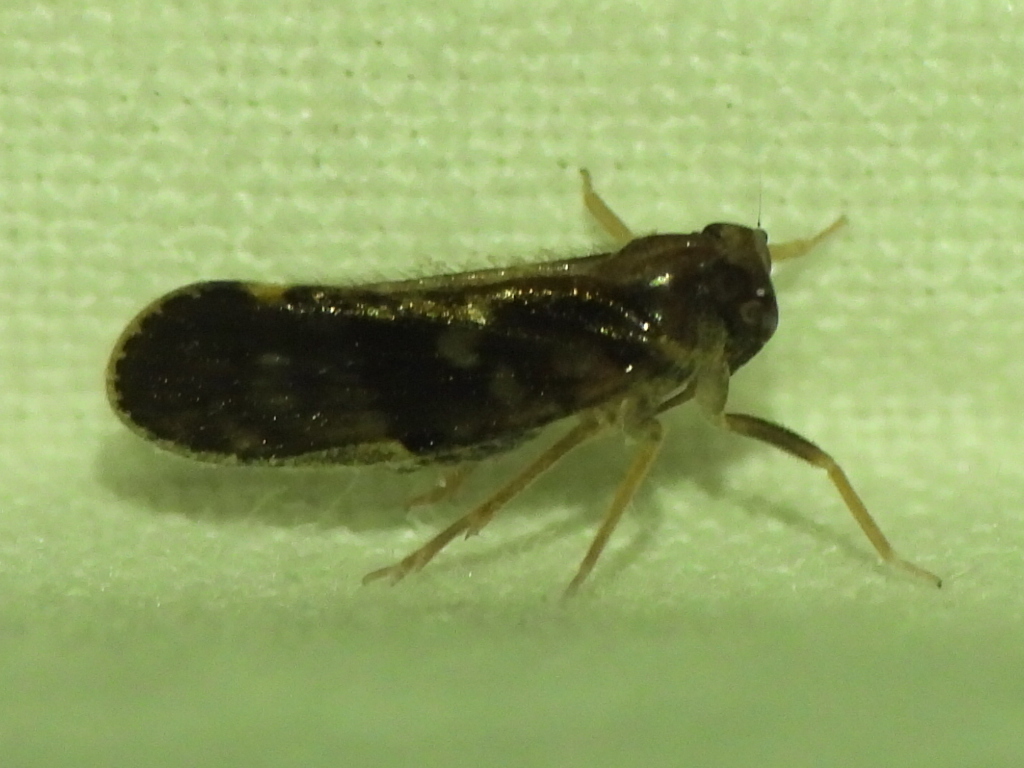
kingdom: Animalia
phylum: Arthropoda
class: Insecta
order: Hemiptera
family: Cixiidae
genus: Pintalia
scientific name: Pintalia vibex
